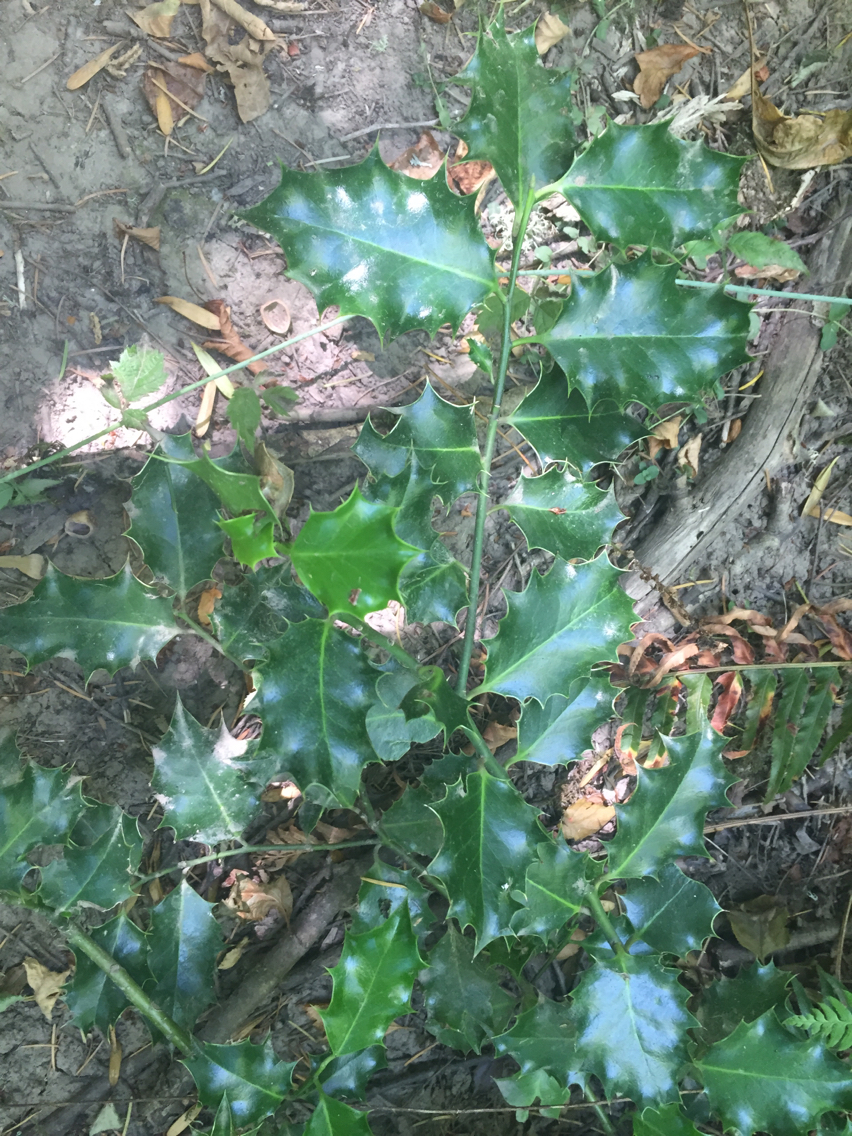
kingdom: Plantae
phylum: Tracheophyta
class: Magnoliopsida
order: Aquifoliales
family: Aquifoliaceae
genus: Ilex
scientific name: Ilex aquifolium
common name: English holly
